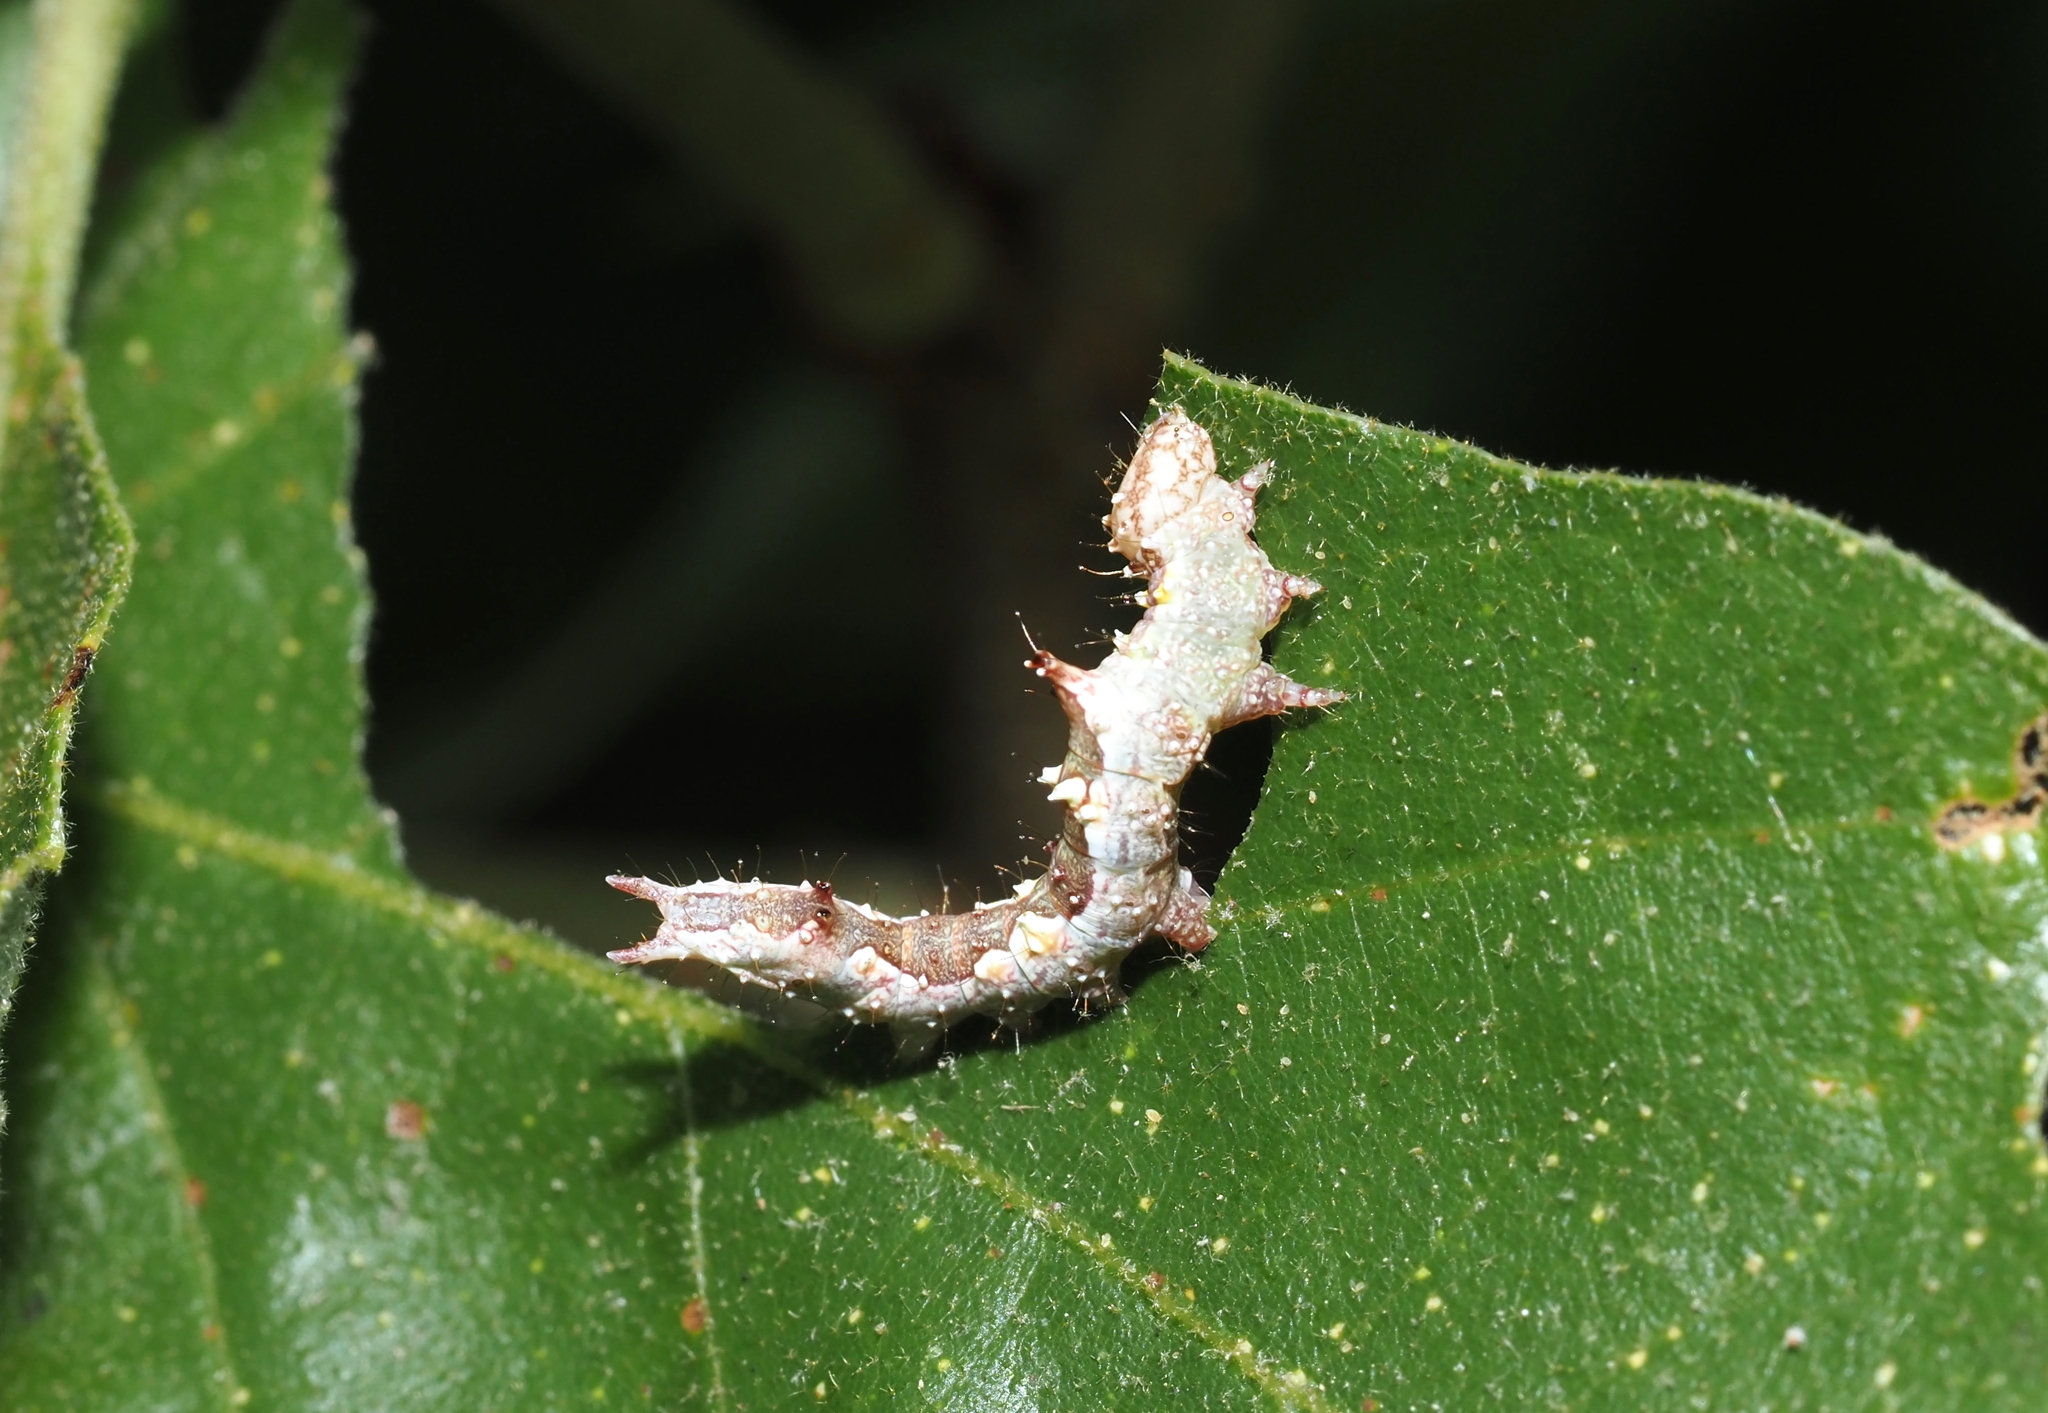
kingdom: Animalia
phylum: Arthropoda
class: Insecta
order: Lepidoptera
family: Notodontidae
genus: Schizura
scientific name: Schizura ipomaeae
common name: Morning-glory prominent
